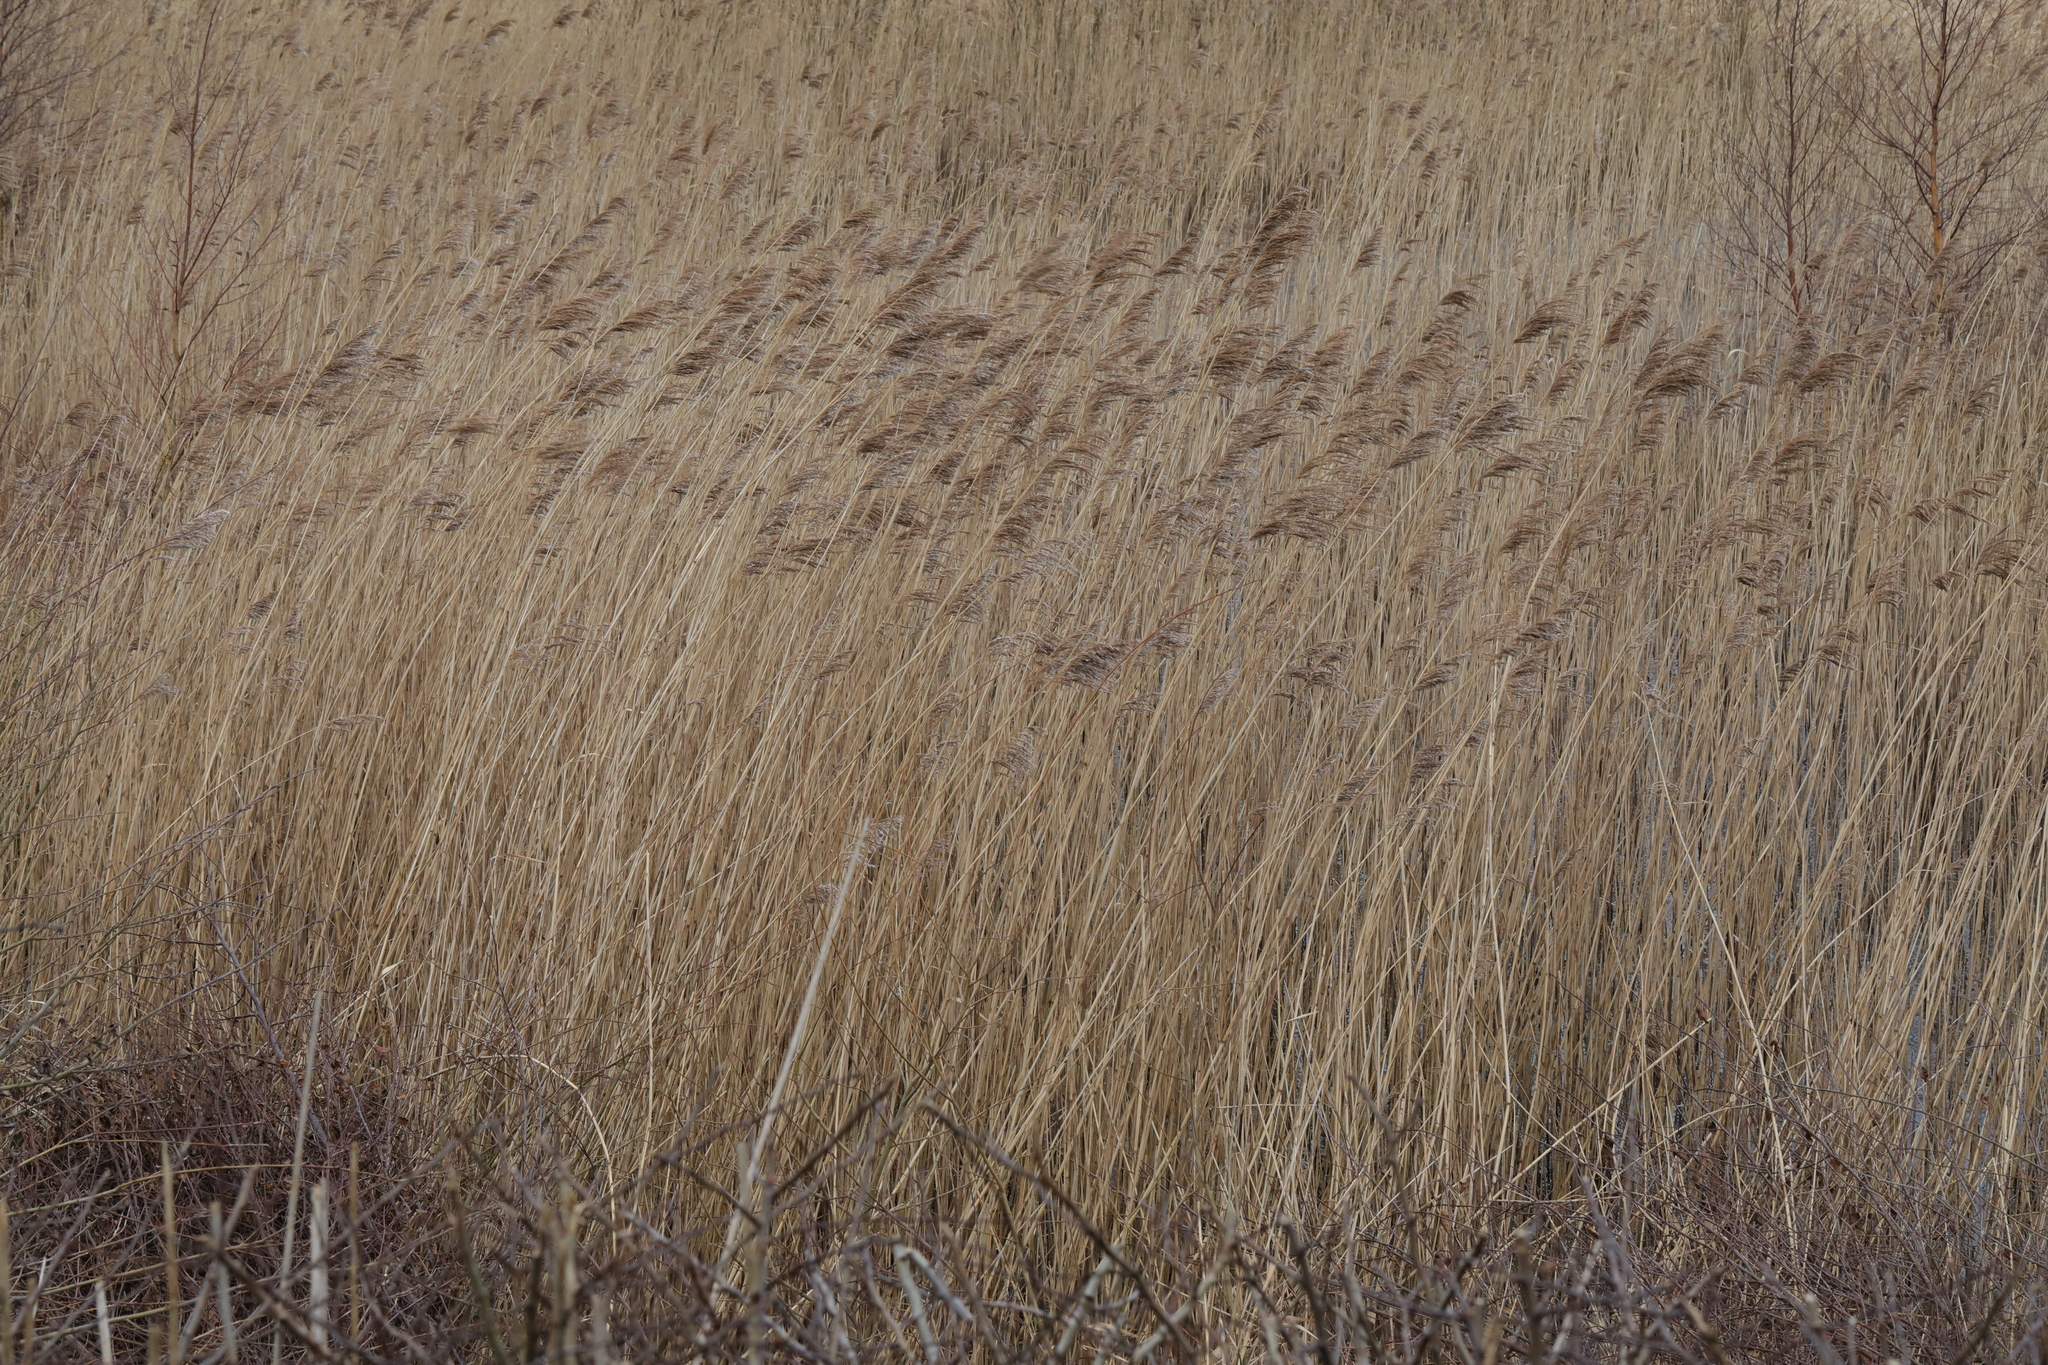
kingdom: Plantae
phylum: Tracheophyta
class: Liliopsida
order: Poales
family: Poaceae
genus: Phragmites
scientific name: Phragmites australis
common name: Common reed
